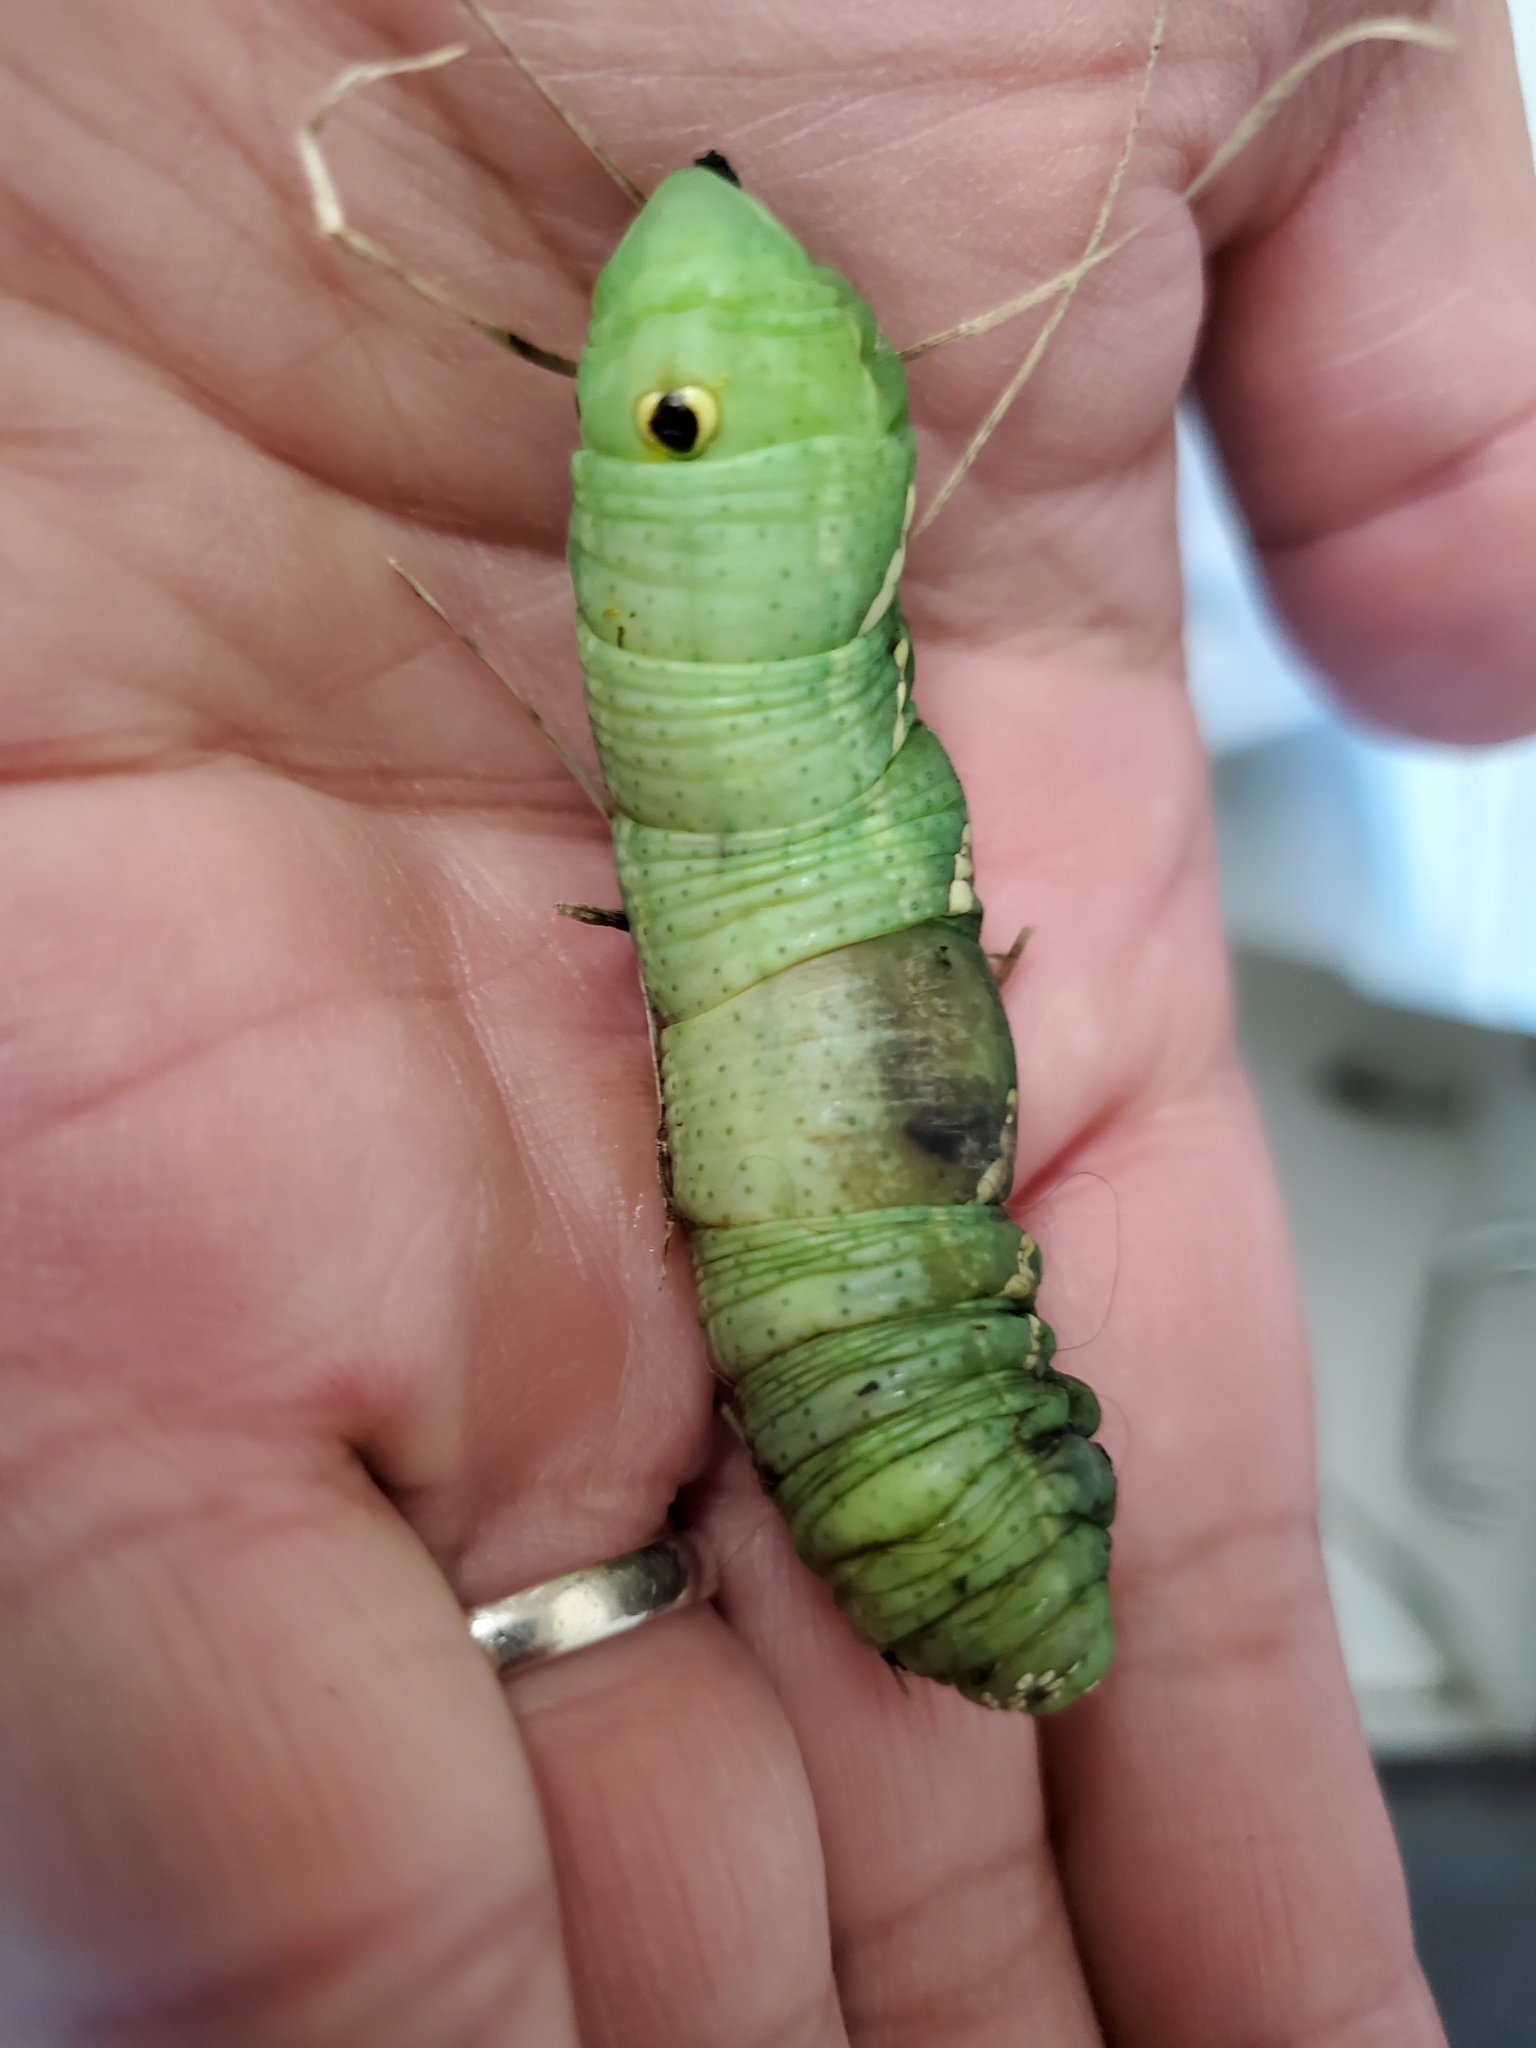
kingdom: Animalia
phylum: Arthropoda
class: Insecta
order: Lepidoptera
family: Sphingidae
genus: Eumorpha
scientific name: Eumorpha achemon
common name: Achemon sphinx
